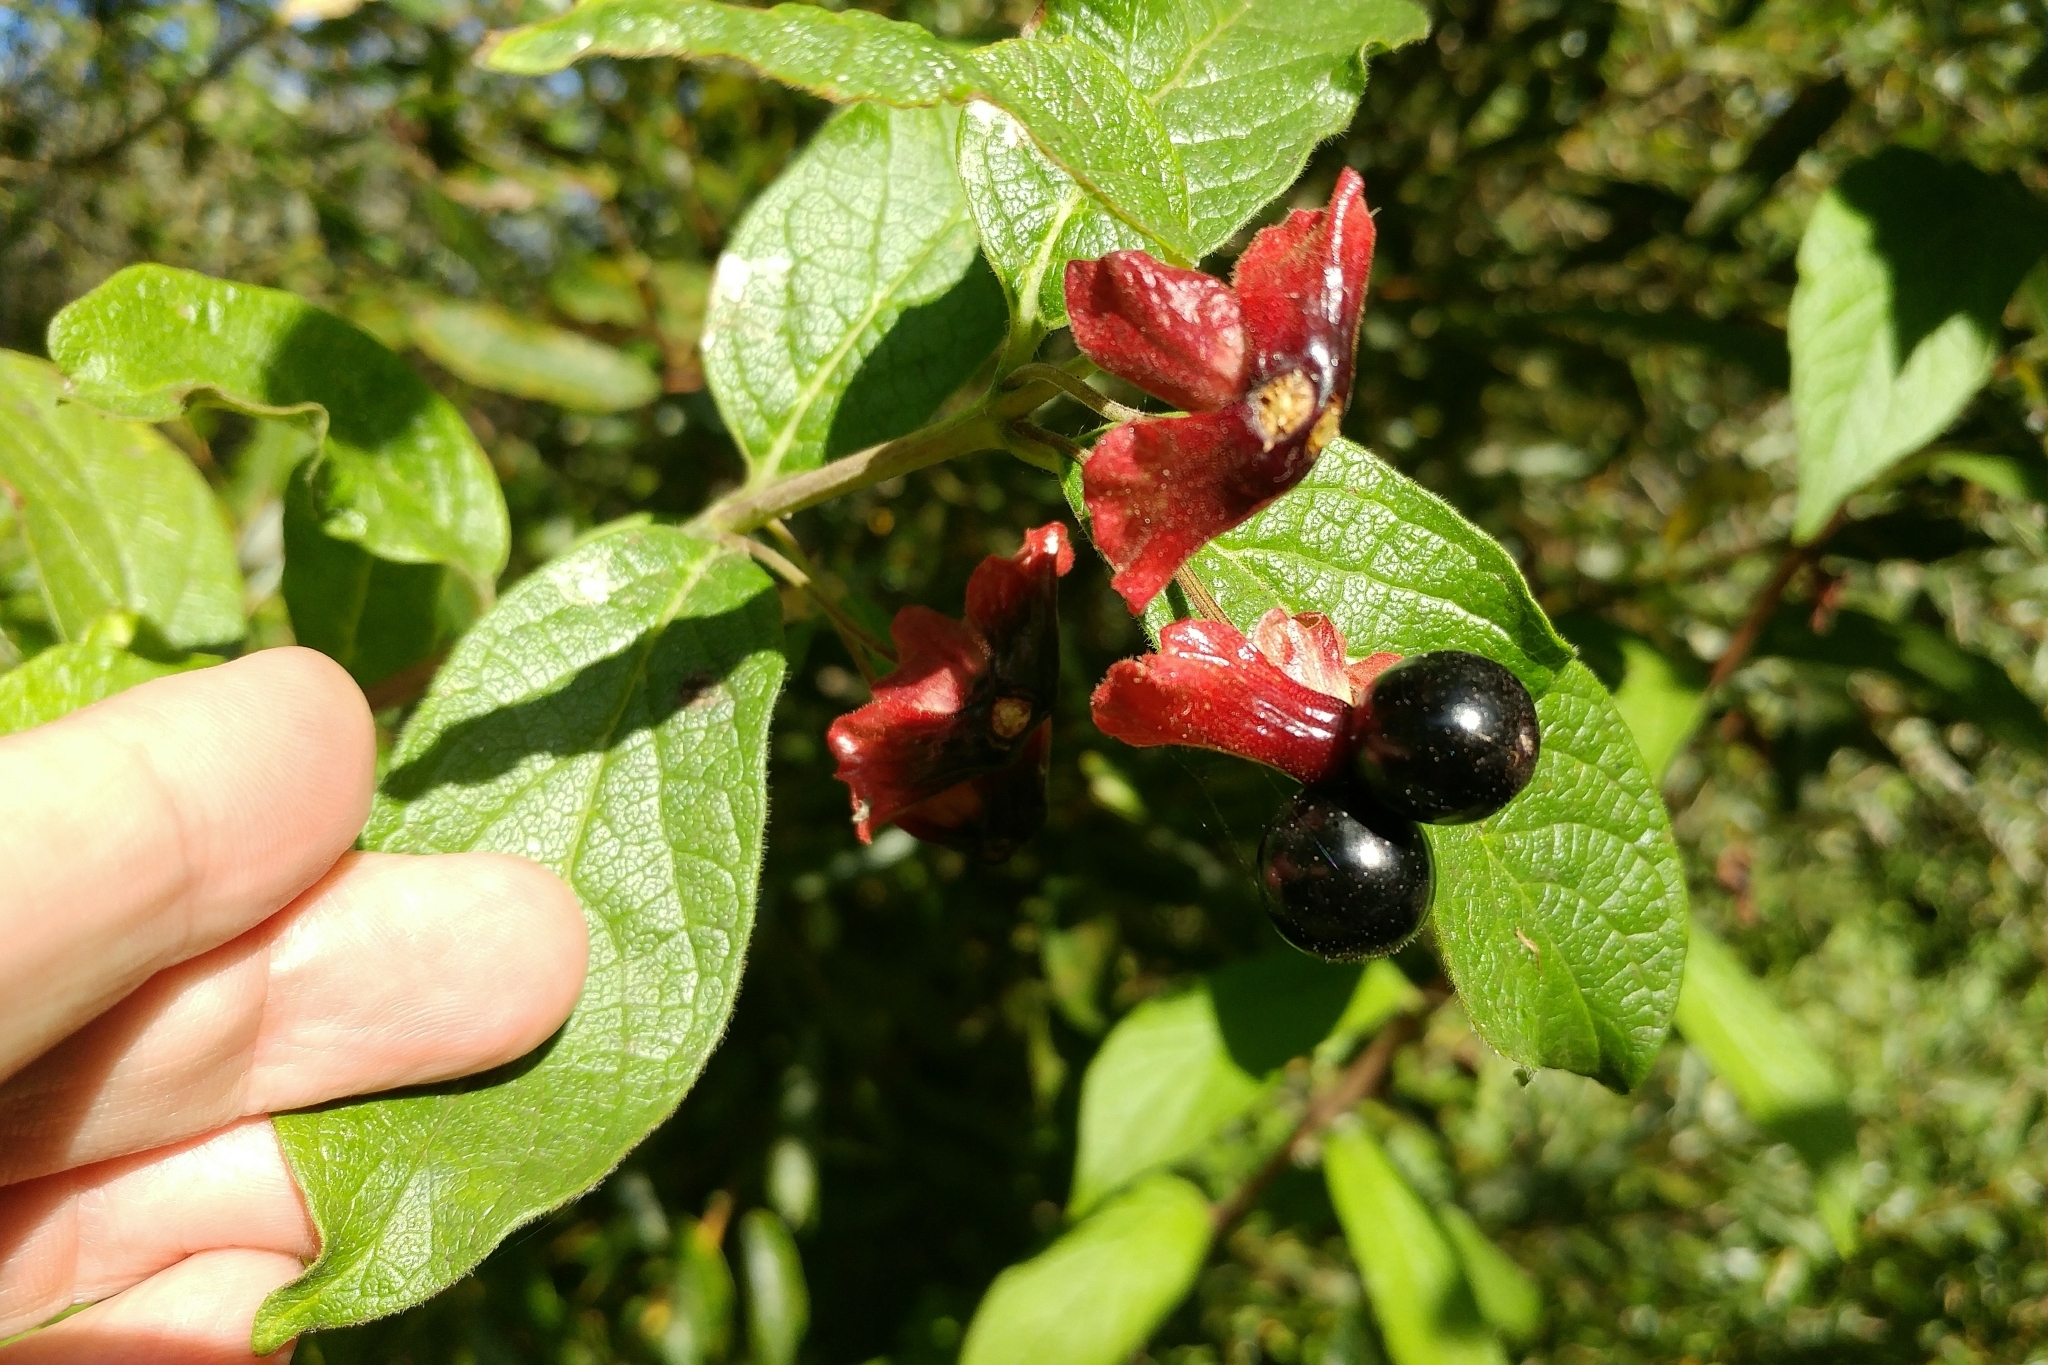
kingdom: Plantae
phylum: Tracheophyta
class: Magnoliopsida
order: Dipsacales
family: Caprifoliaceae
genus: Lonicera
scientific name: Lonicera involucrata
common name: Californian honeysuckle
